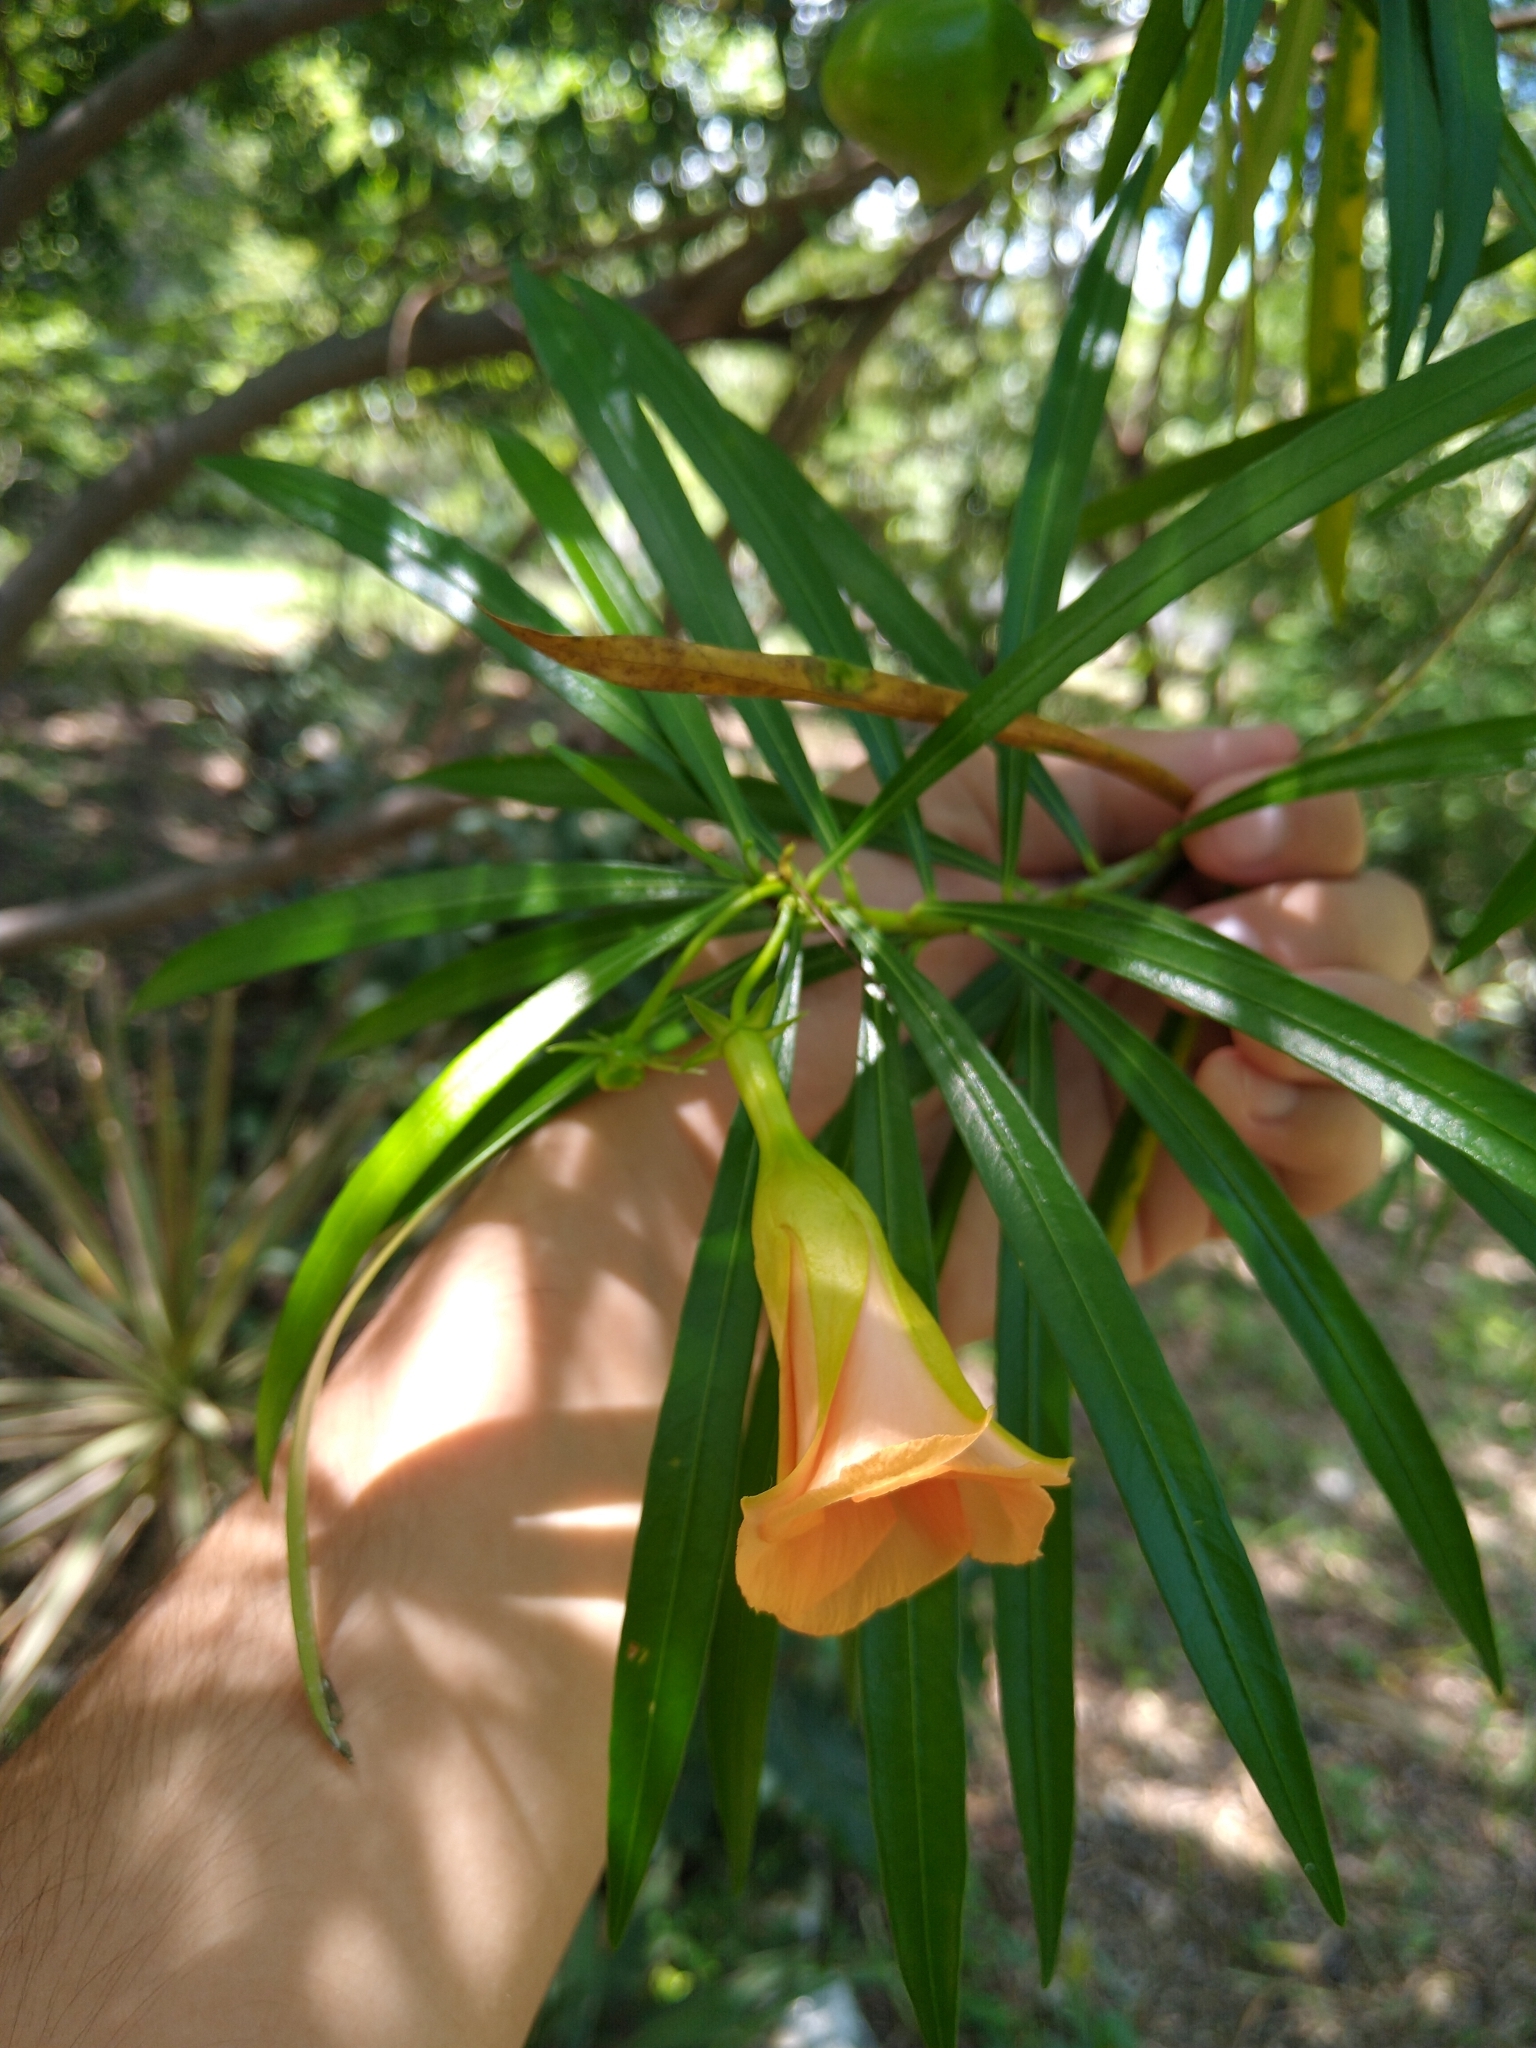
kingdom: Plantae
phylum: Tracheophyta
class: Magnoliopsida
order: Gentianales
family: Apocynaceae
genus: Cascabela
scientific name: Cascabela thevetia
